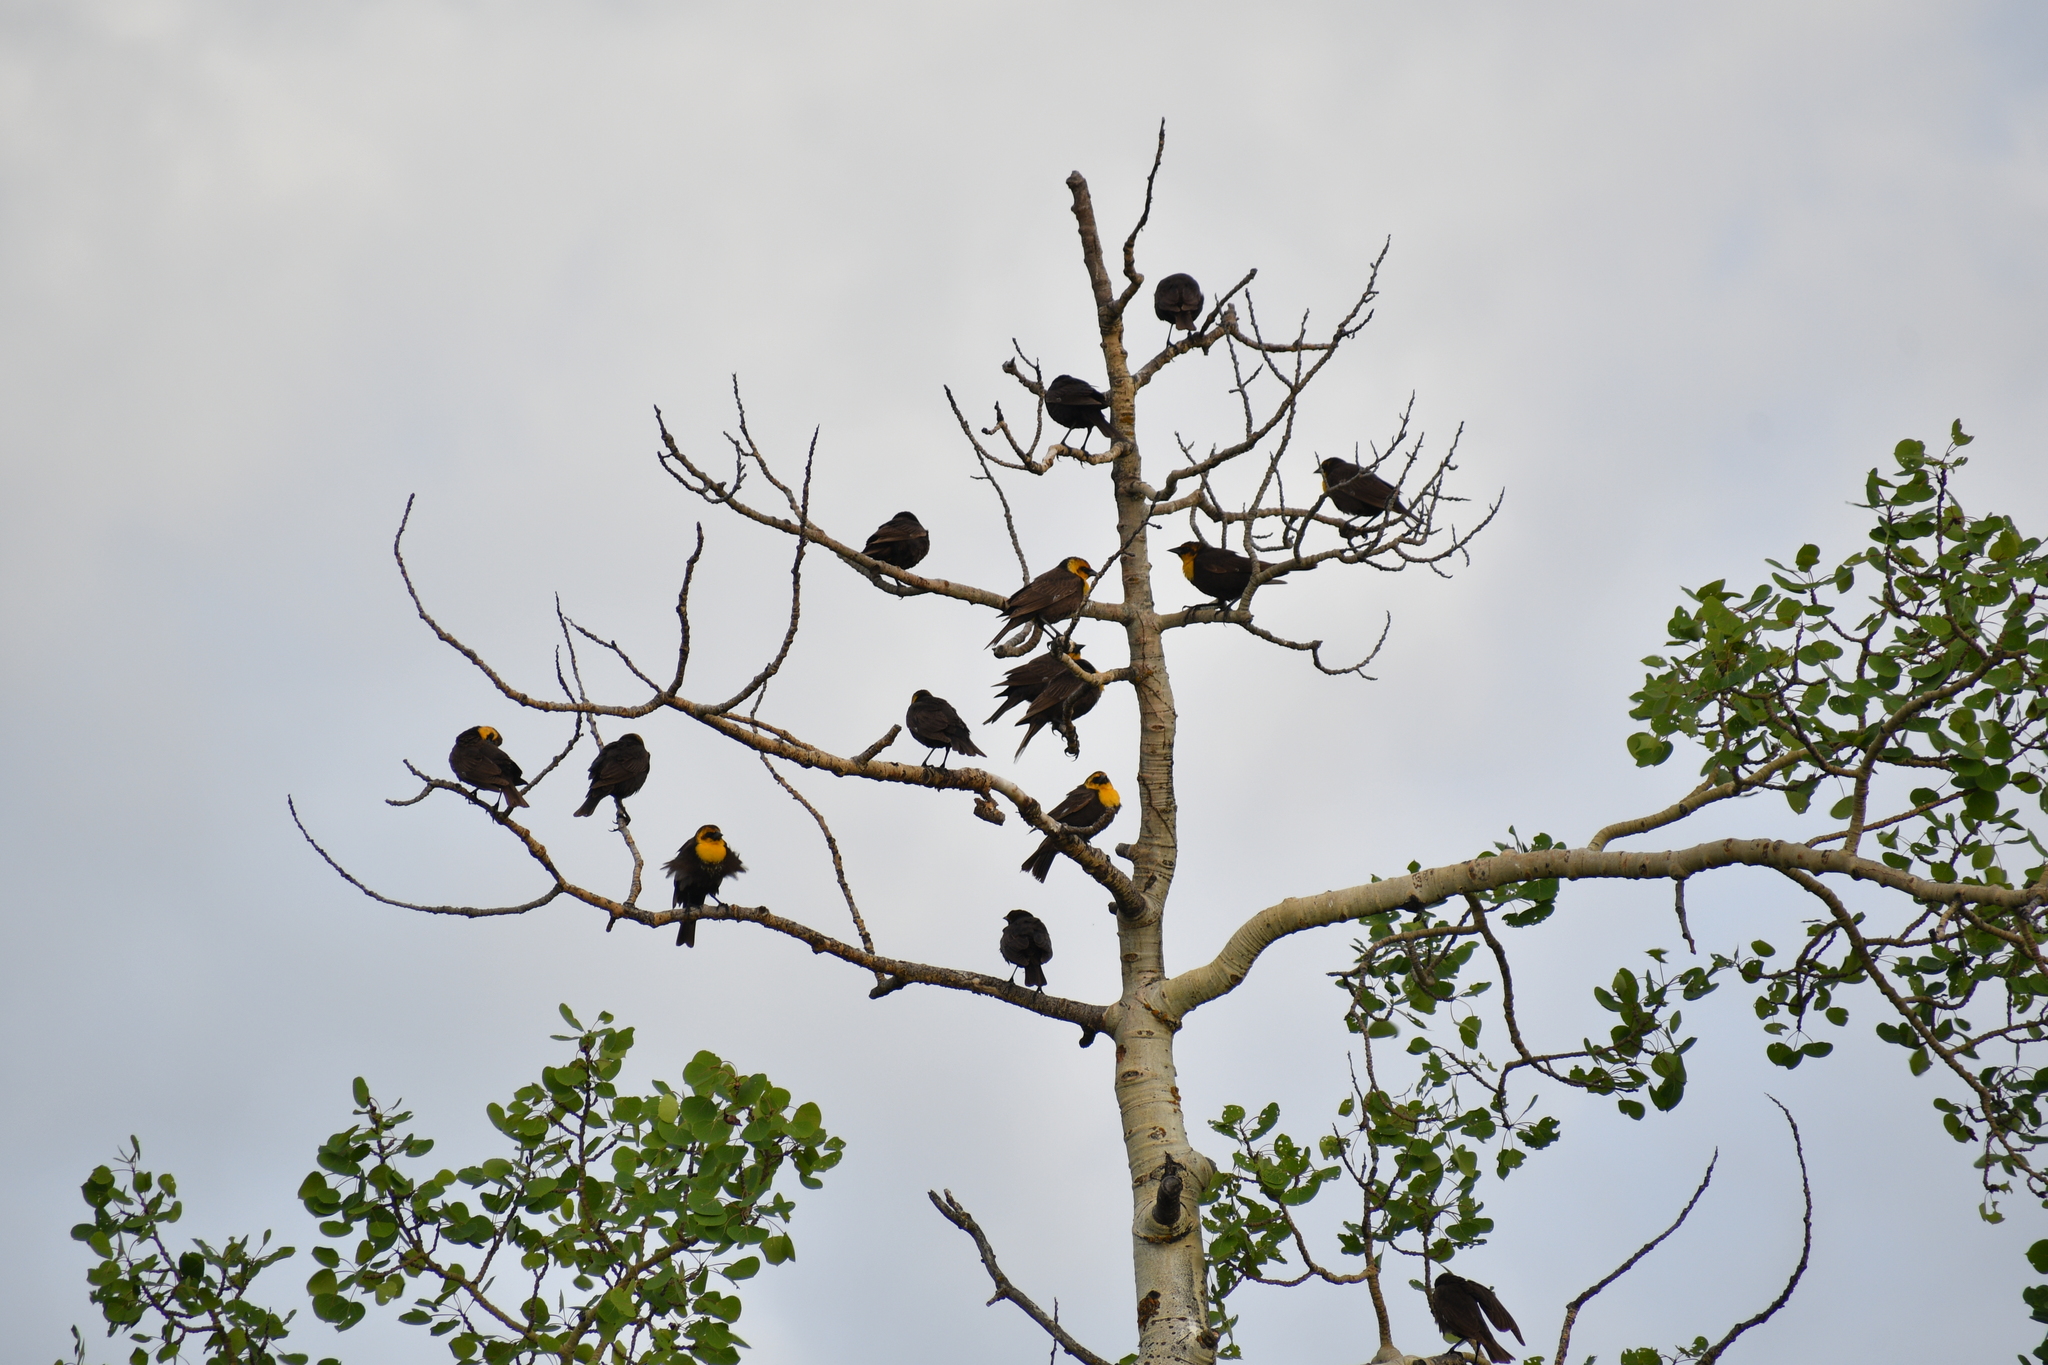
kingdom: Animalia
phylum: Chordata
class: Aves
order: Passeriformes
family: Icteridae
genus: Xanthocephalus
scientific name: Xanthocephalus xanthocephalus
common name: Yellow-headed blackbird
